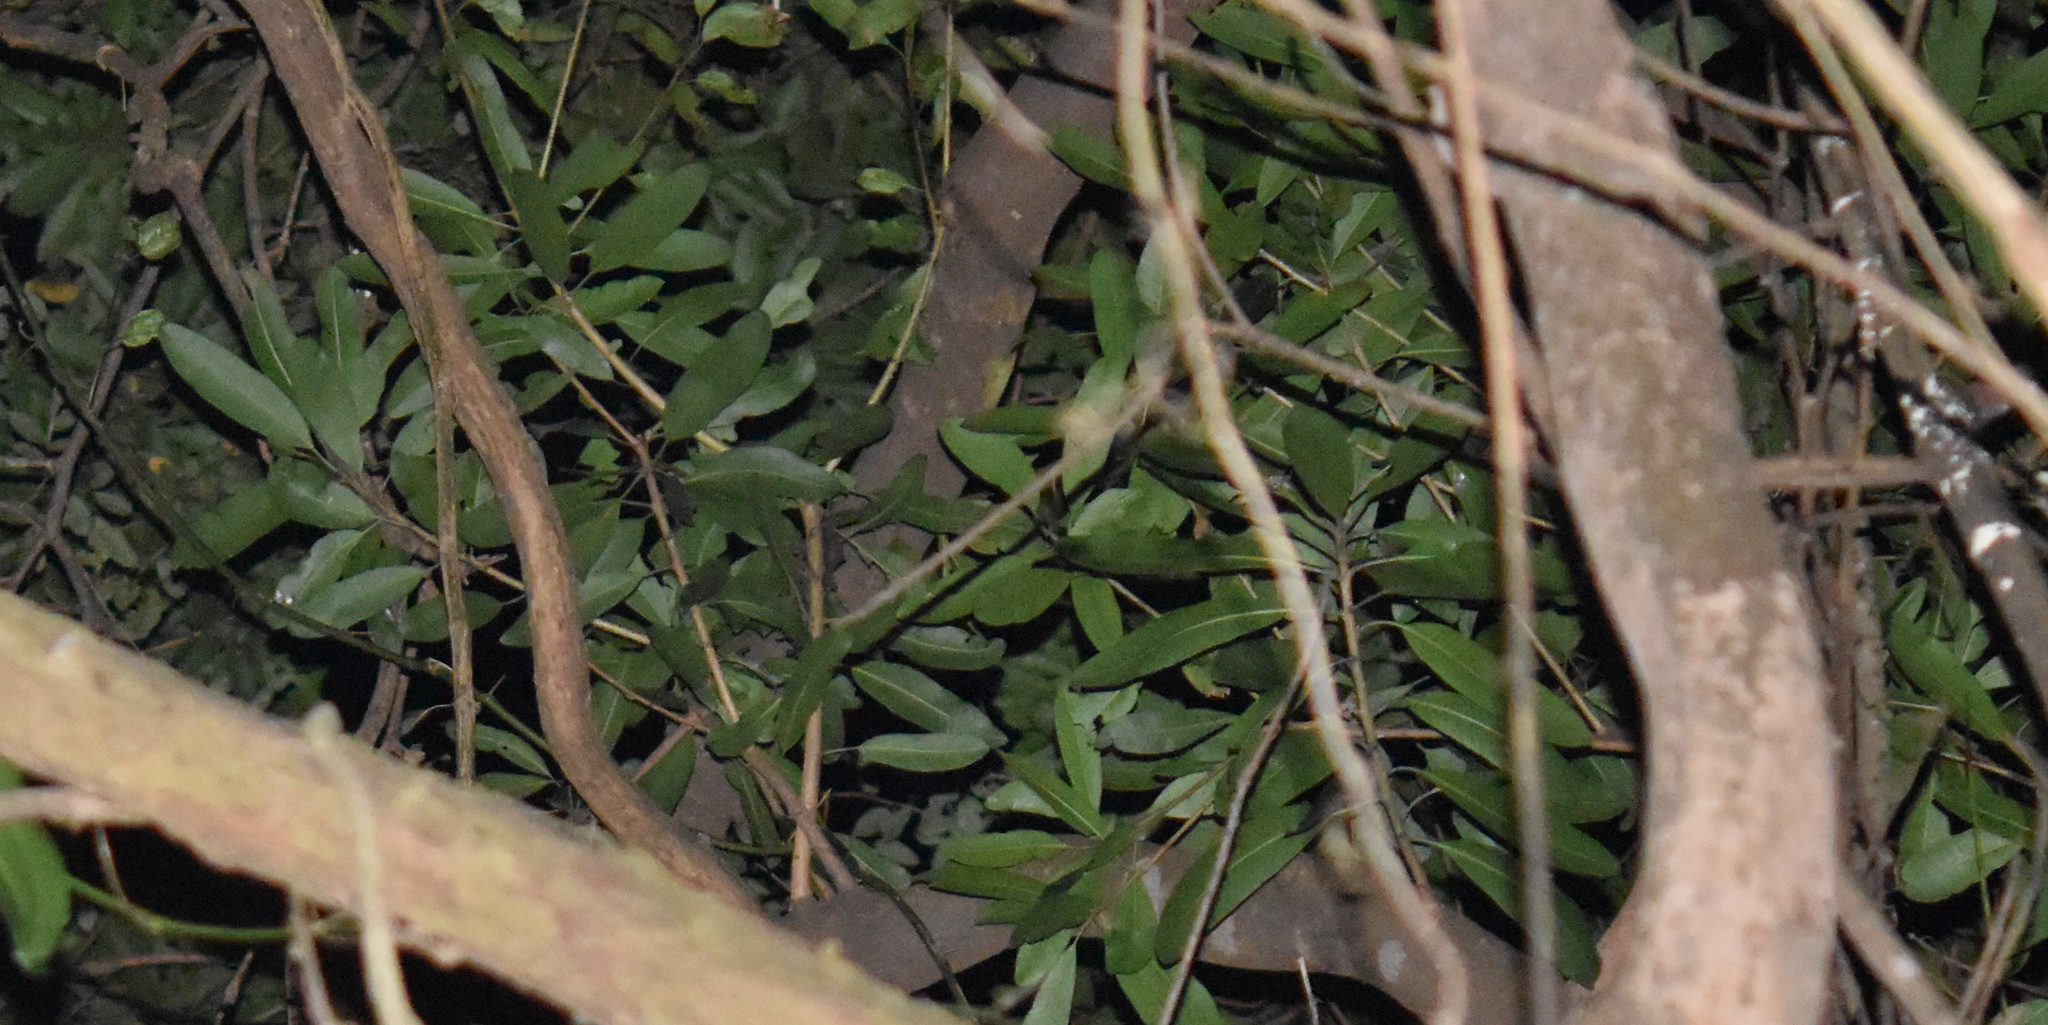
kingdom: Plantae
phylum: Tracheophyta
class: Magnoliopsida
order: Sapindales
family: Anacardiaceae
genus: Protorhus
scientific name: Protorhus longifolia
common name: Red-beech
